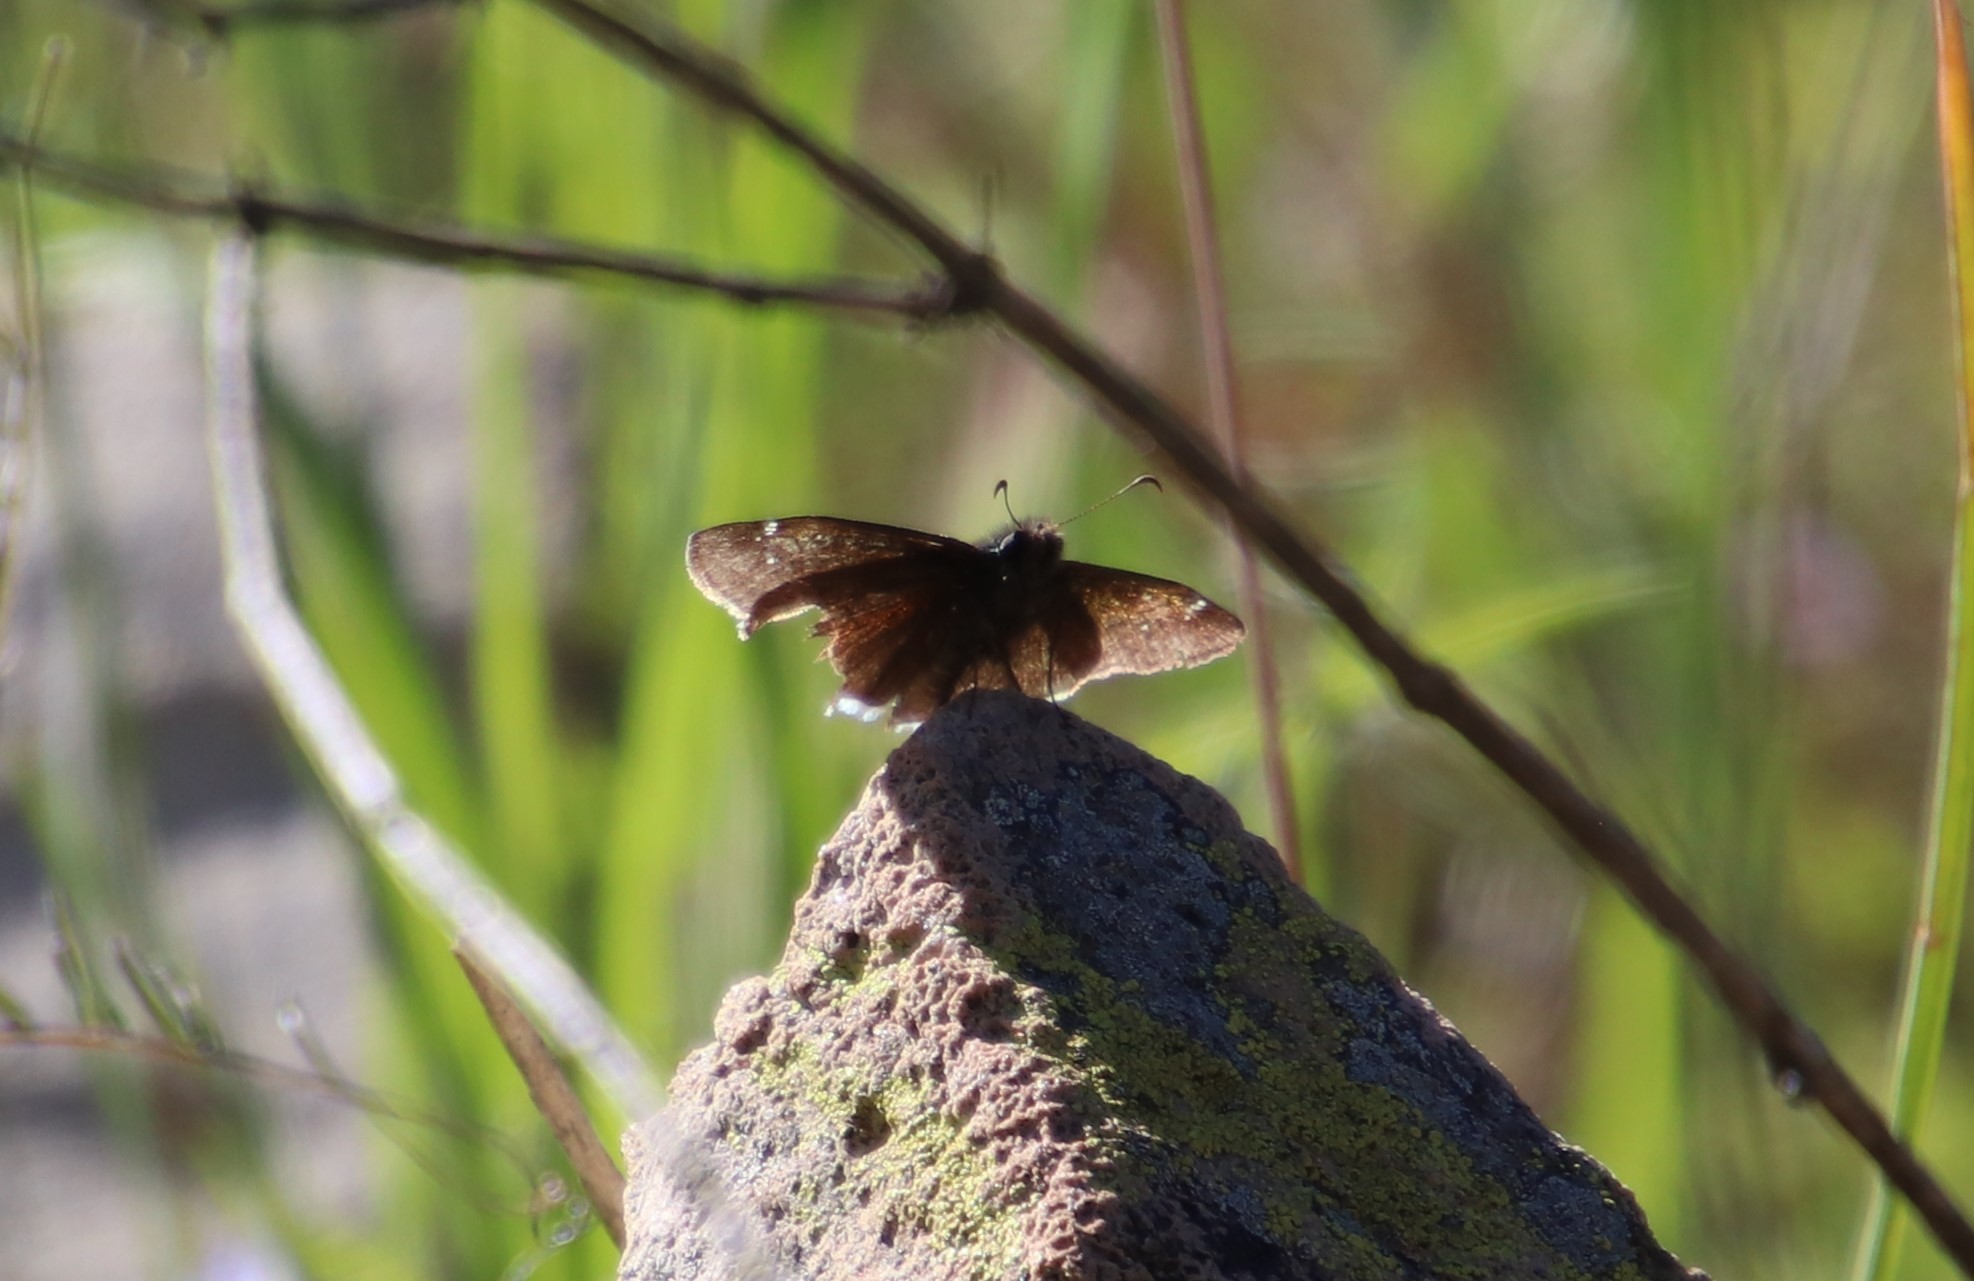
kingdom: Animalia
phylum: Arthropoda
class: Insecta
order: Lepidoptera
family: Hesperiidae
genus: Erynnis
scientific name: Erynnis funeralis
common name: Funereal duskywing
